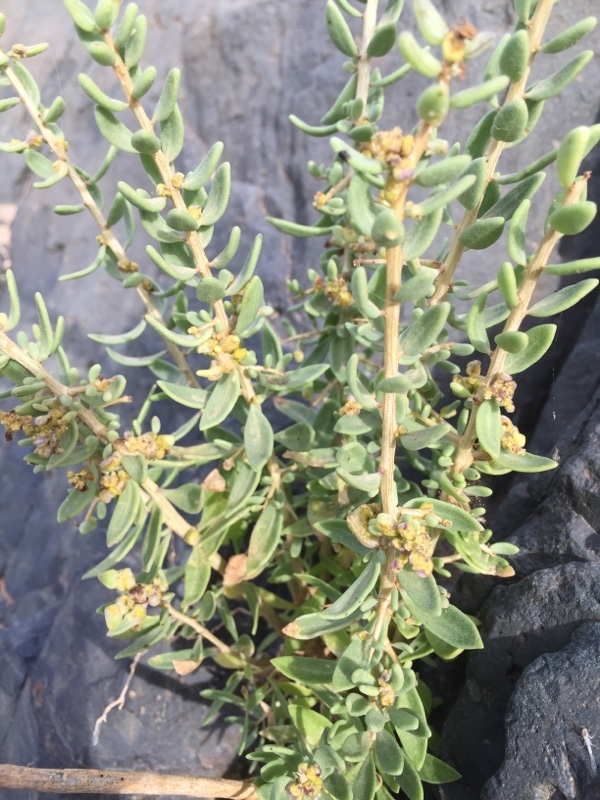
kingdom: Plantae
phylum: Tracheophyta
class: Magnoliopsida
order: Solanales
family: Solanaceae
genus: Lycium
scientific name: Lycium intricatum
